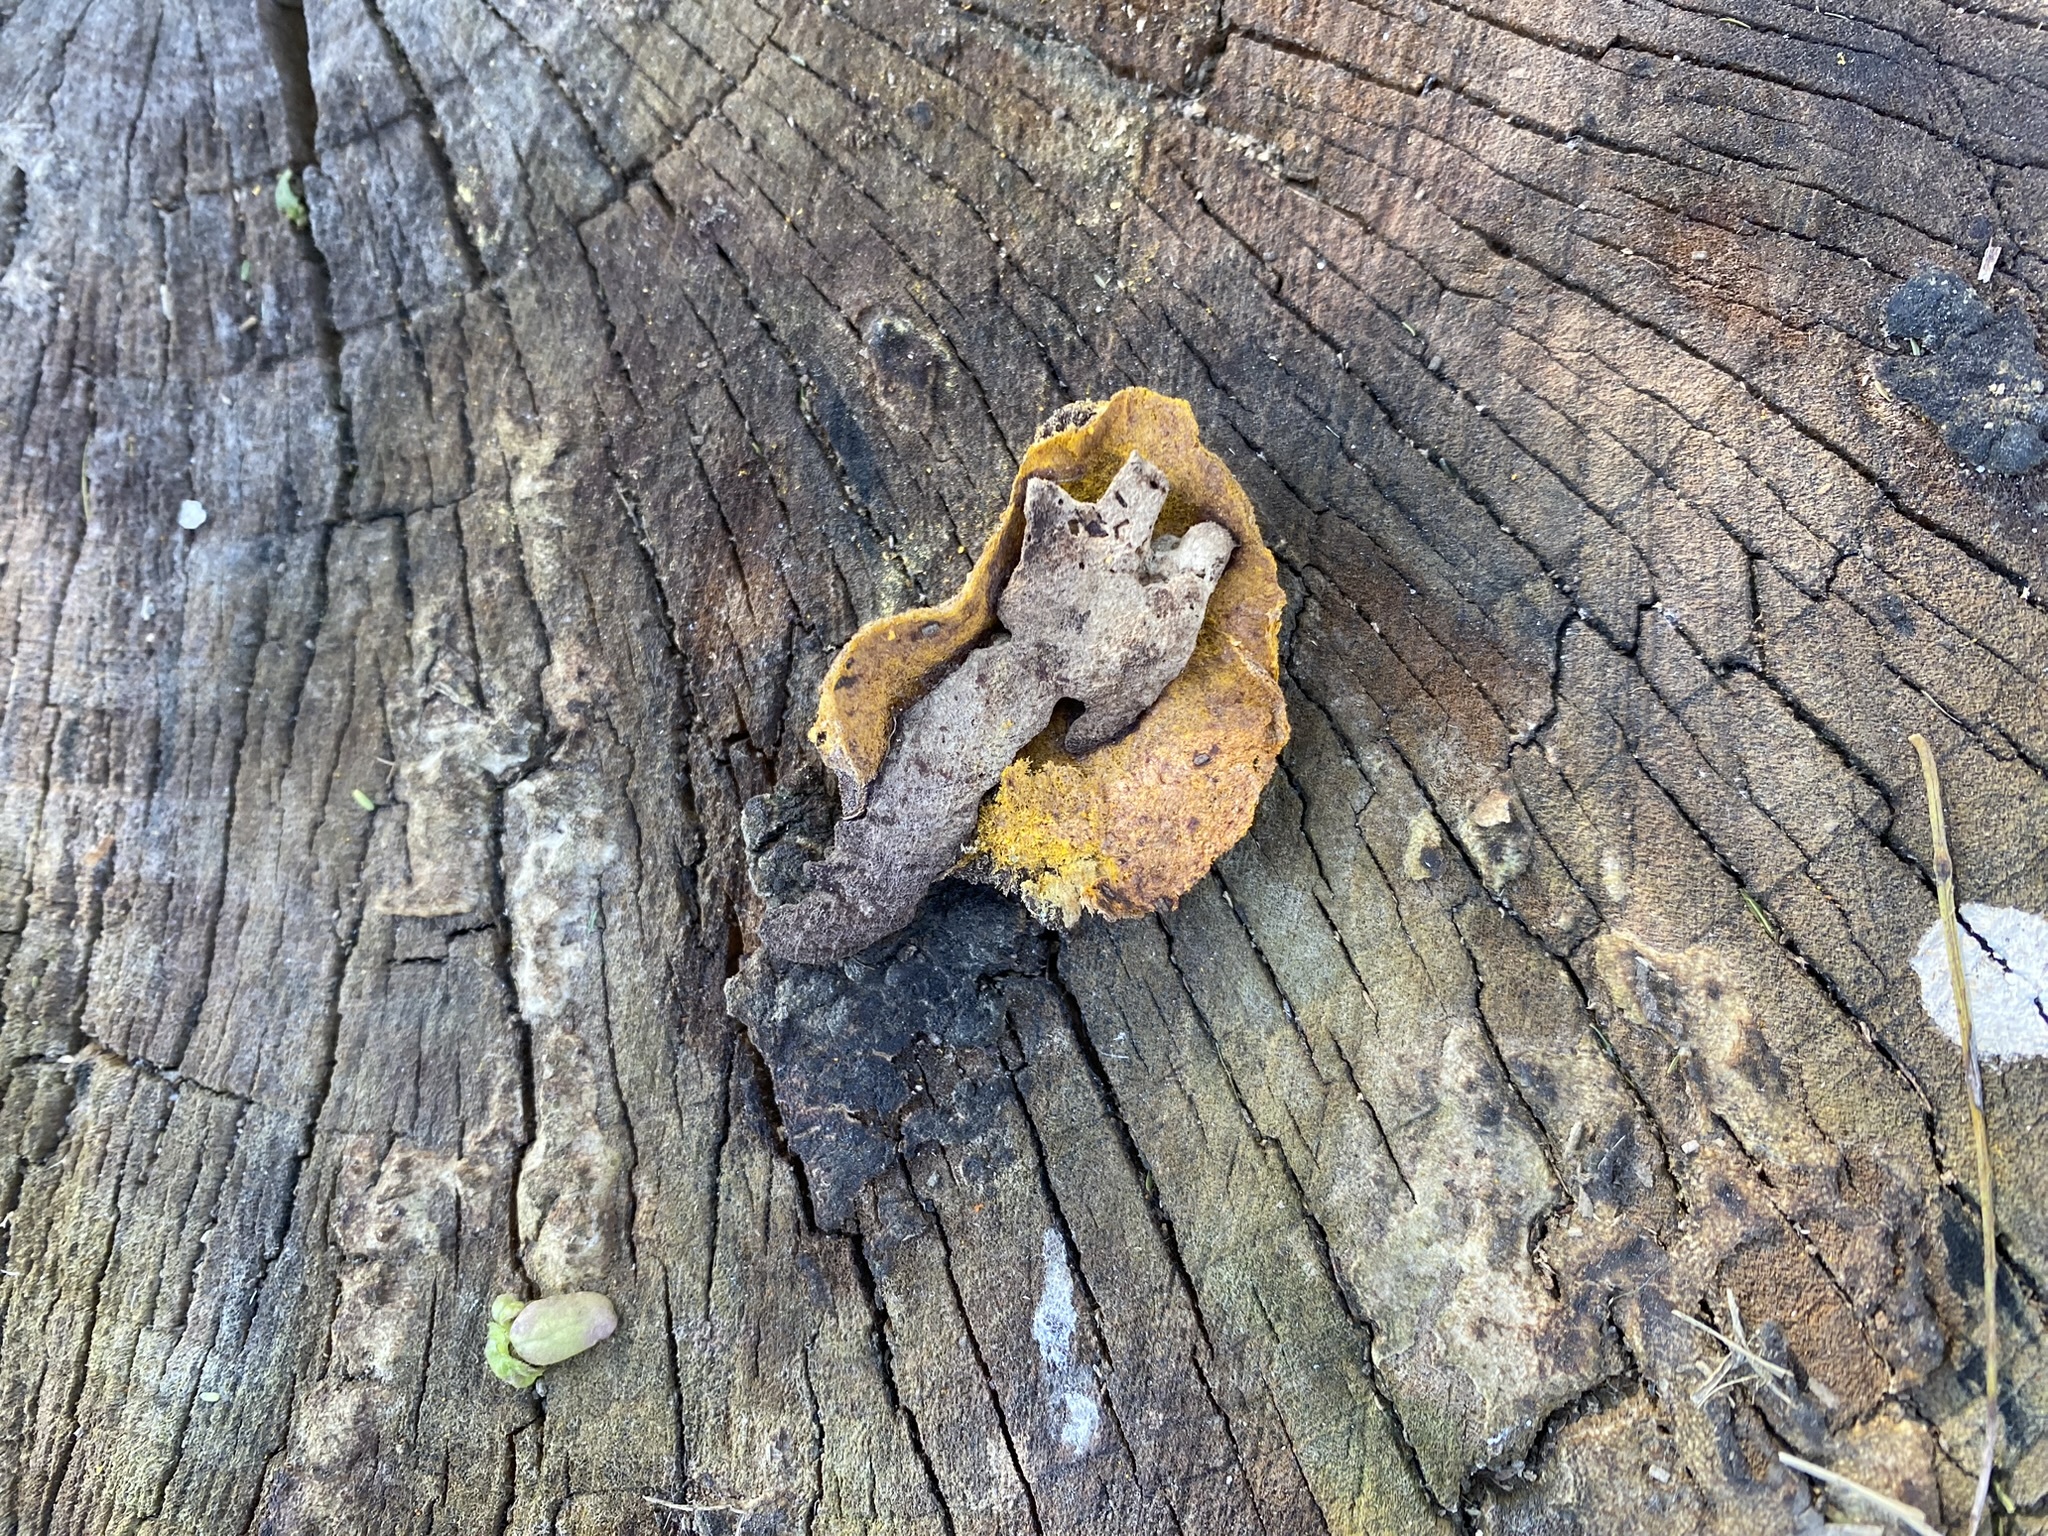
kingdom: Protozoa
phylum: Mycetozoa
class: Myxomycetes
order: Physarales
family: Physaraceae
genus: Fuligo
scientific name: Fuligo septica
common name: Dog vomit slime mold
